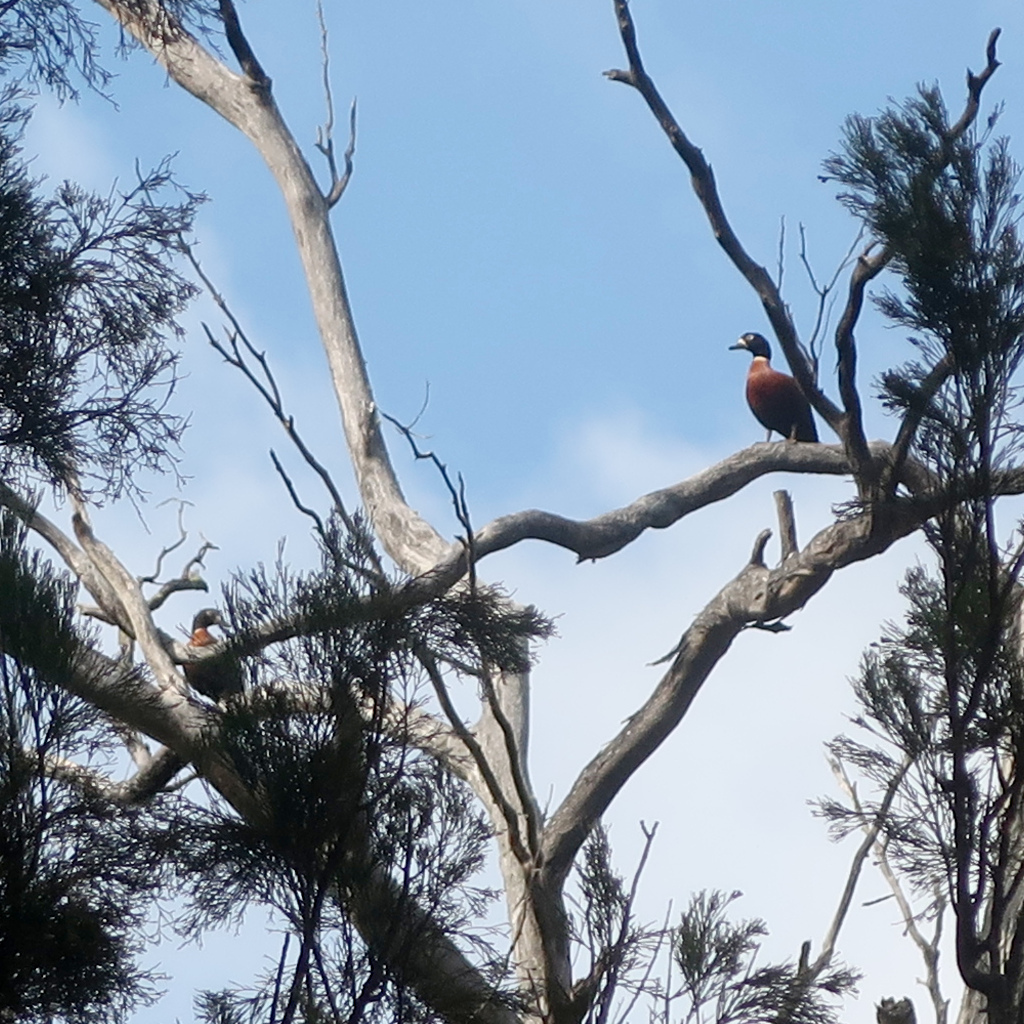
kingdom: Animalia
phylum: Chordata
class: Aves
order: Anseriformes
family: Anatidae
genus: Tadorna
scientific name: Tadorna tadornoides
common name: Australian shelduck
